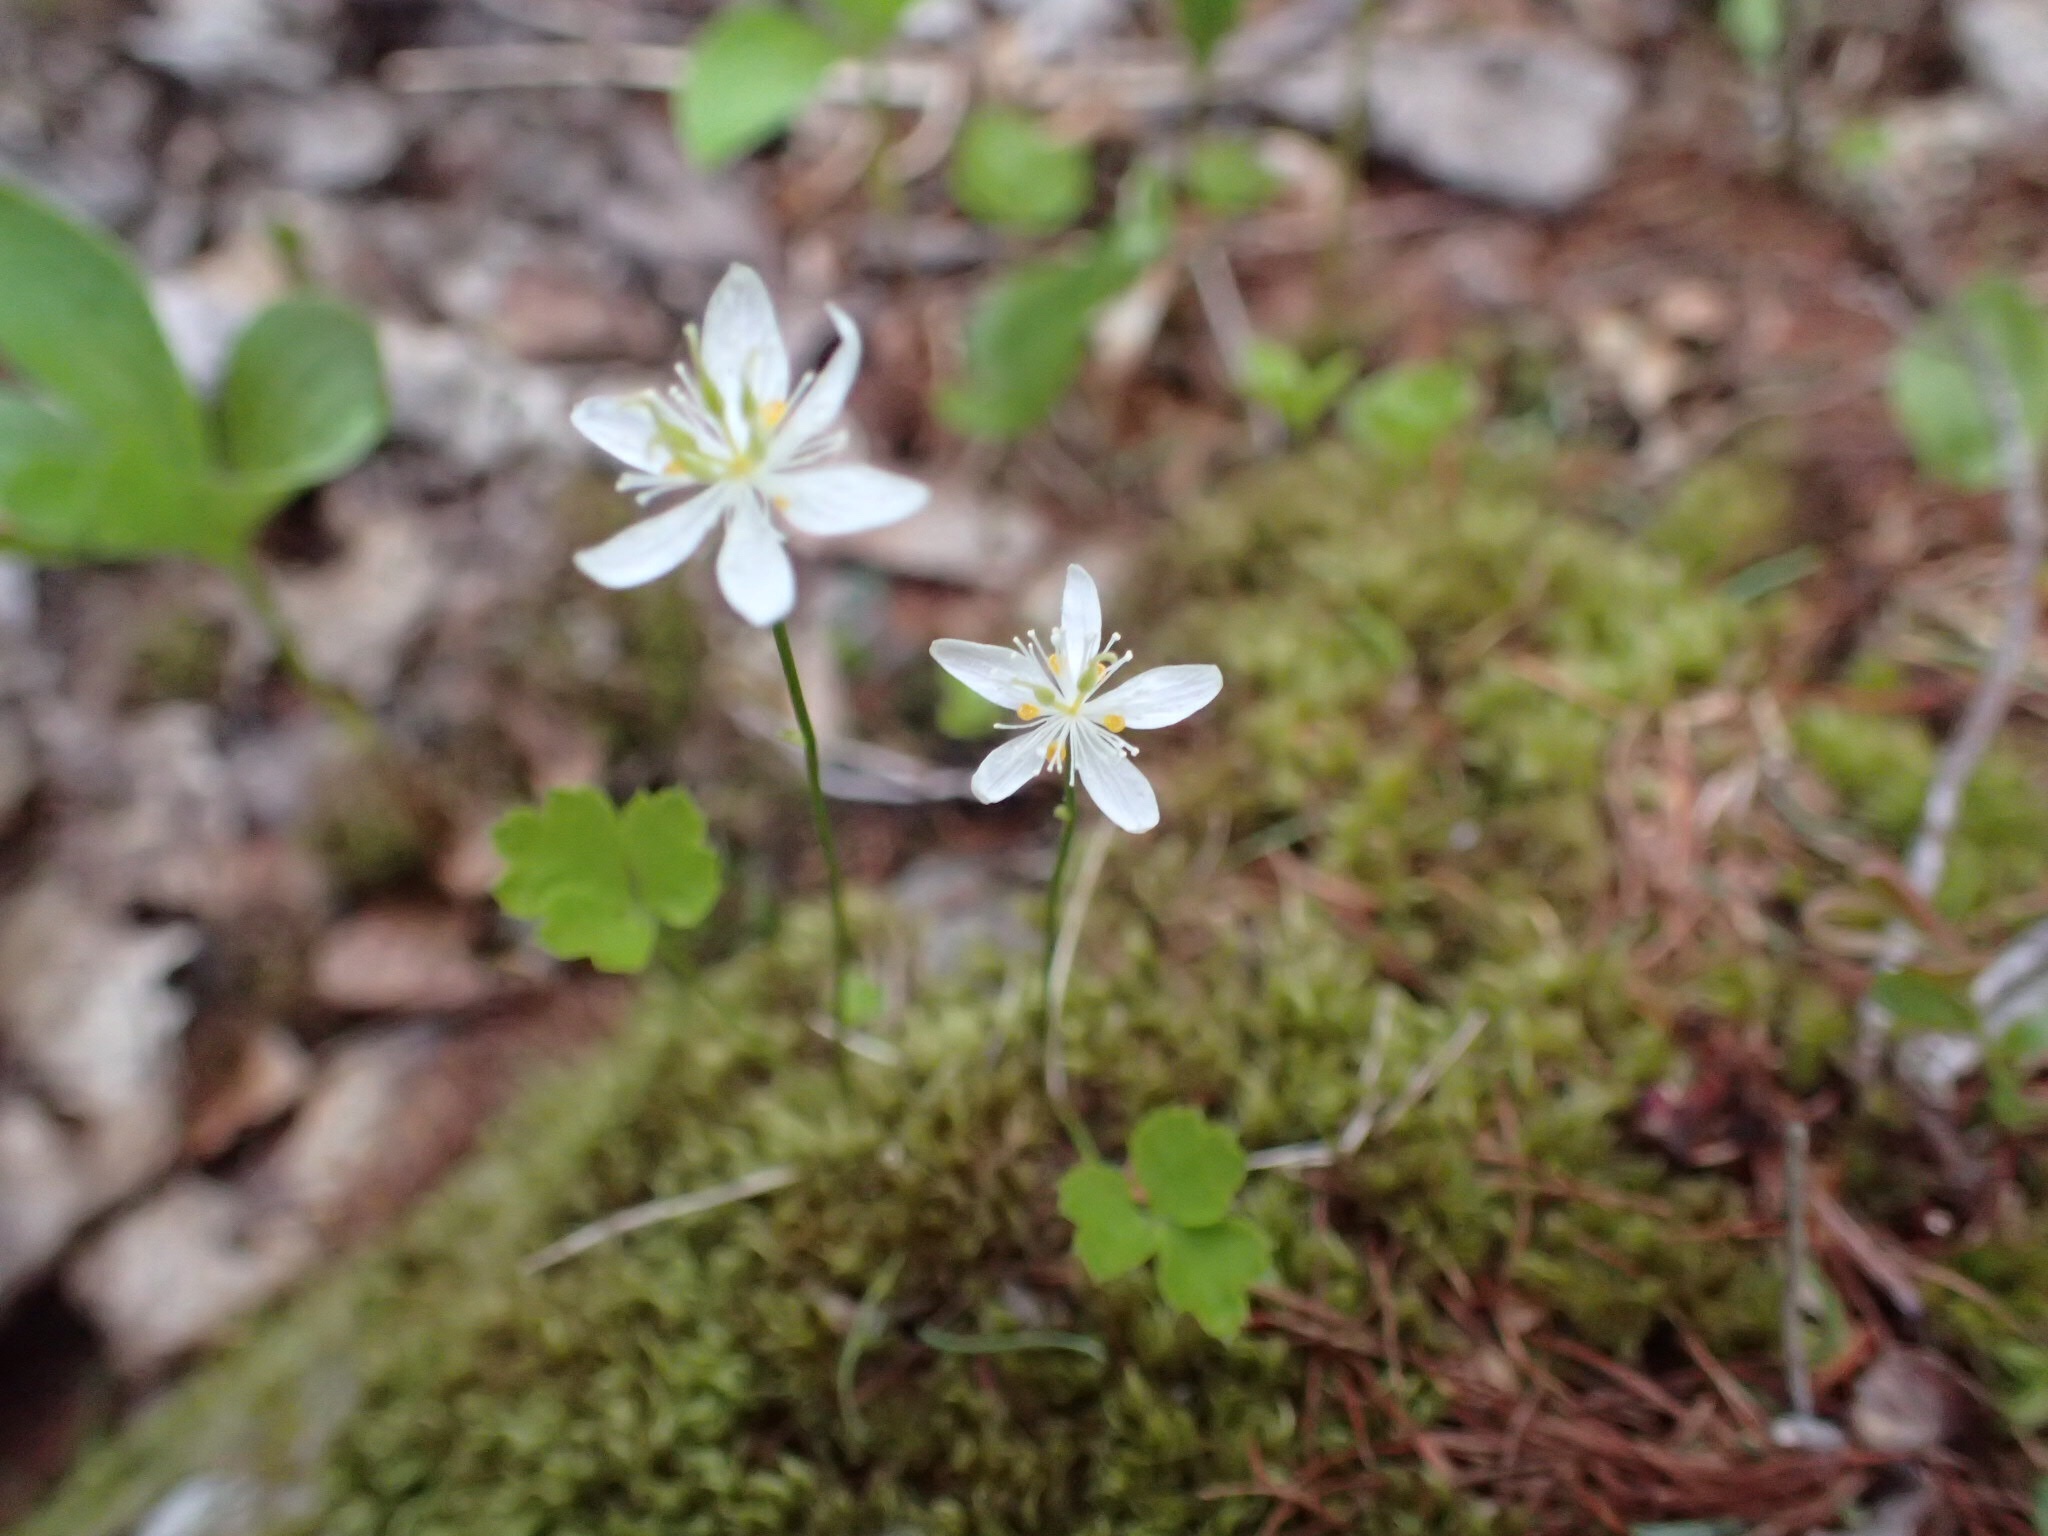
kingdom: Plantae
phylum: Tracheophyta
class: Magnoliopsida
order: Ranunculales
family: Ranunculaceae
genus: Coptis
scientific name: Coptis trifolia
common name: Canker-root
